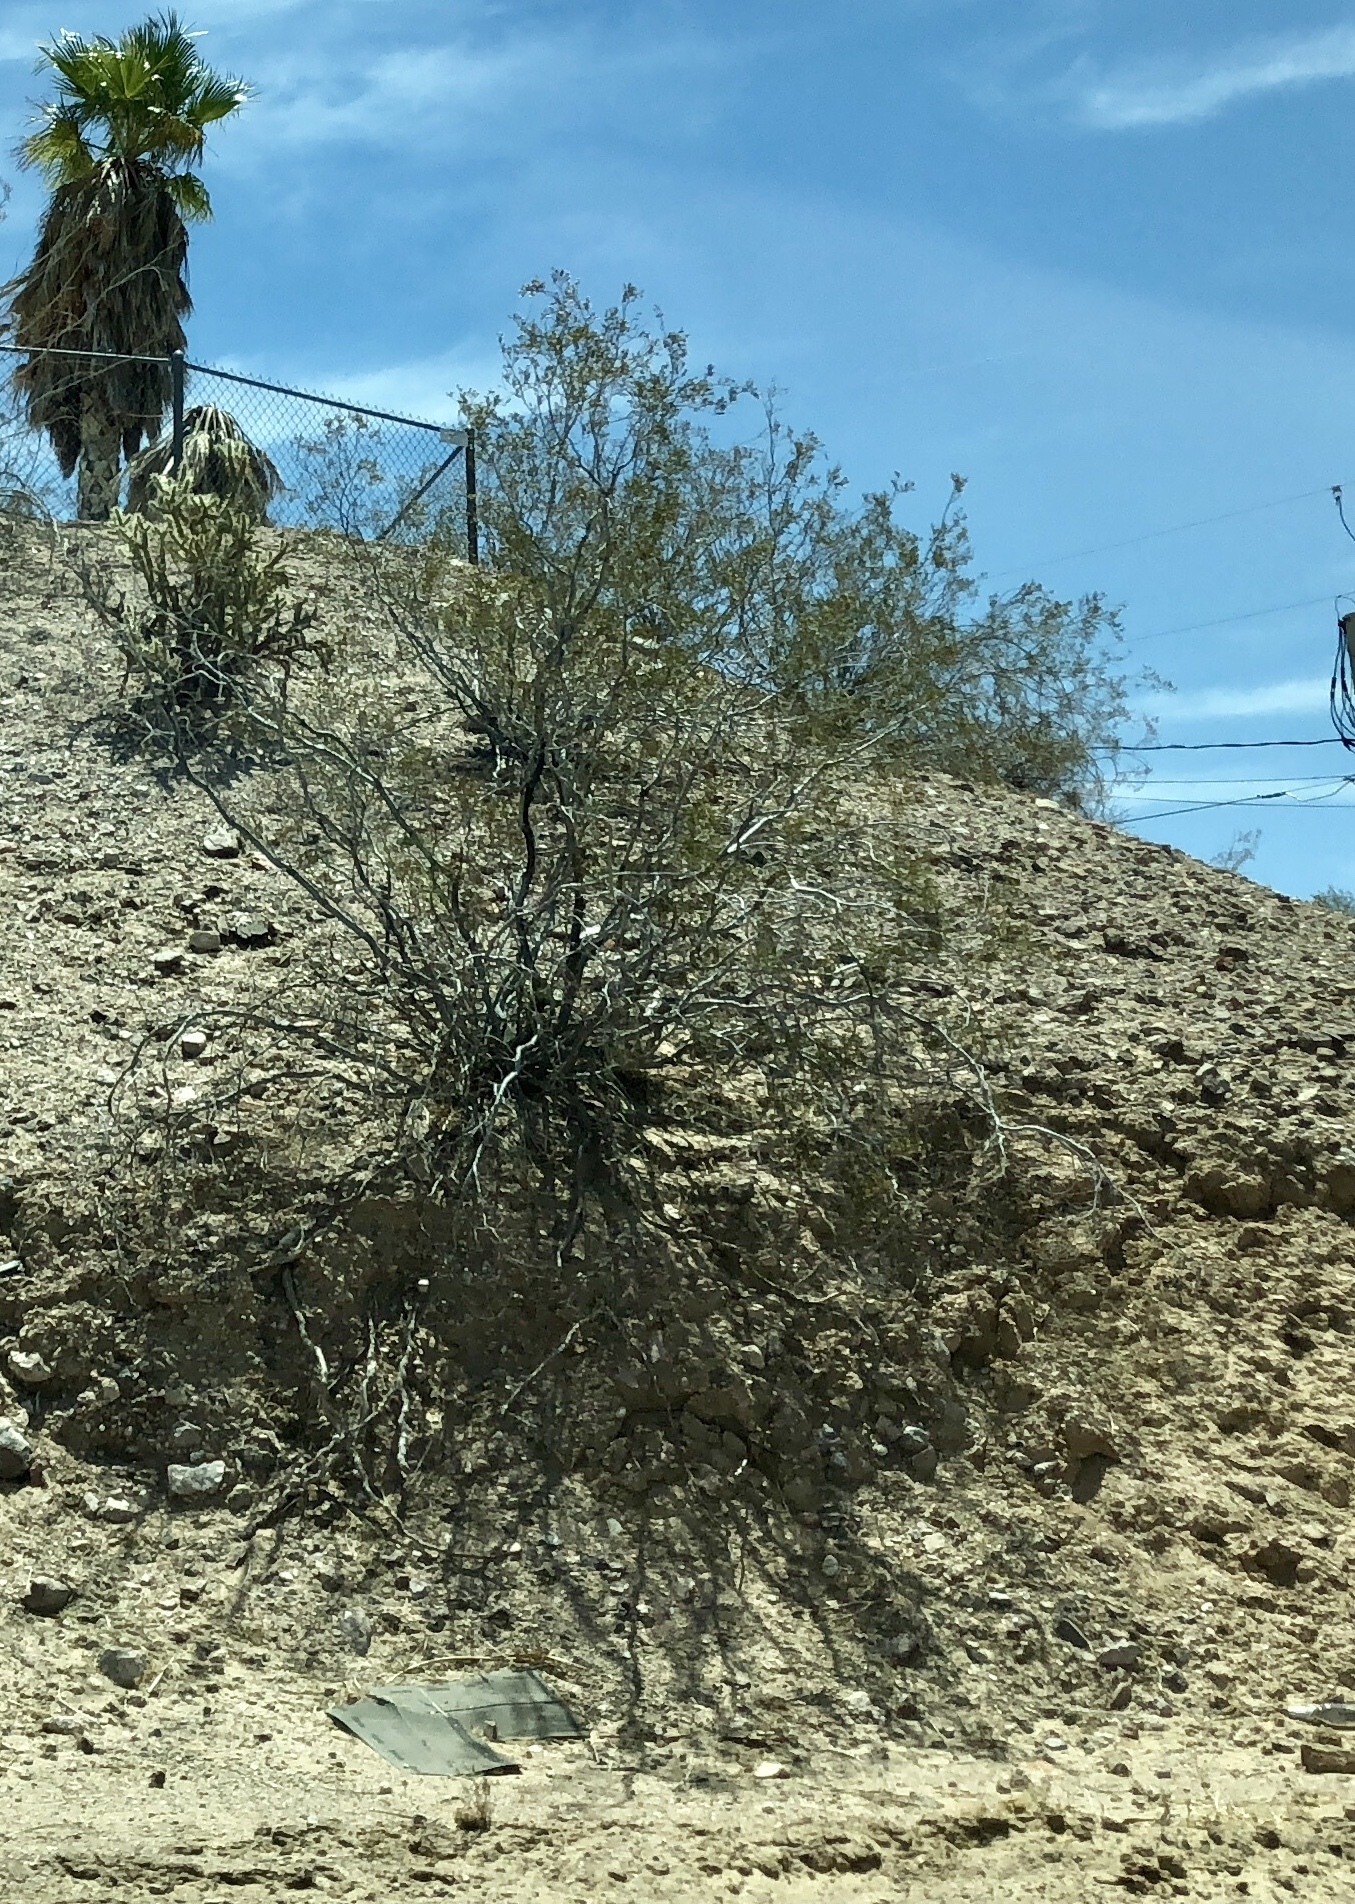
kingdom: Plantae
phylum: Tracheophyta
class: Magnoliopsida
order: Zygophyllales
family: Zygophyllaceae
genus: Larrea
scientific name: Larrea tridentata
